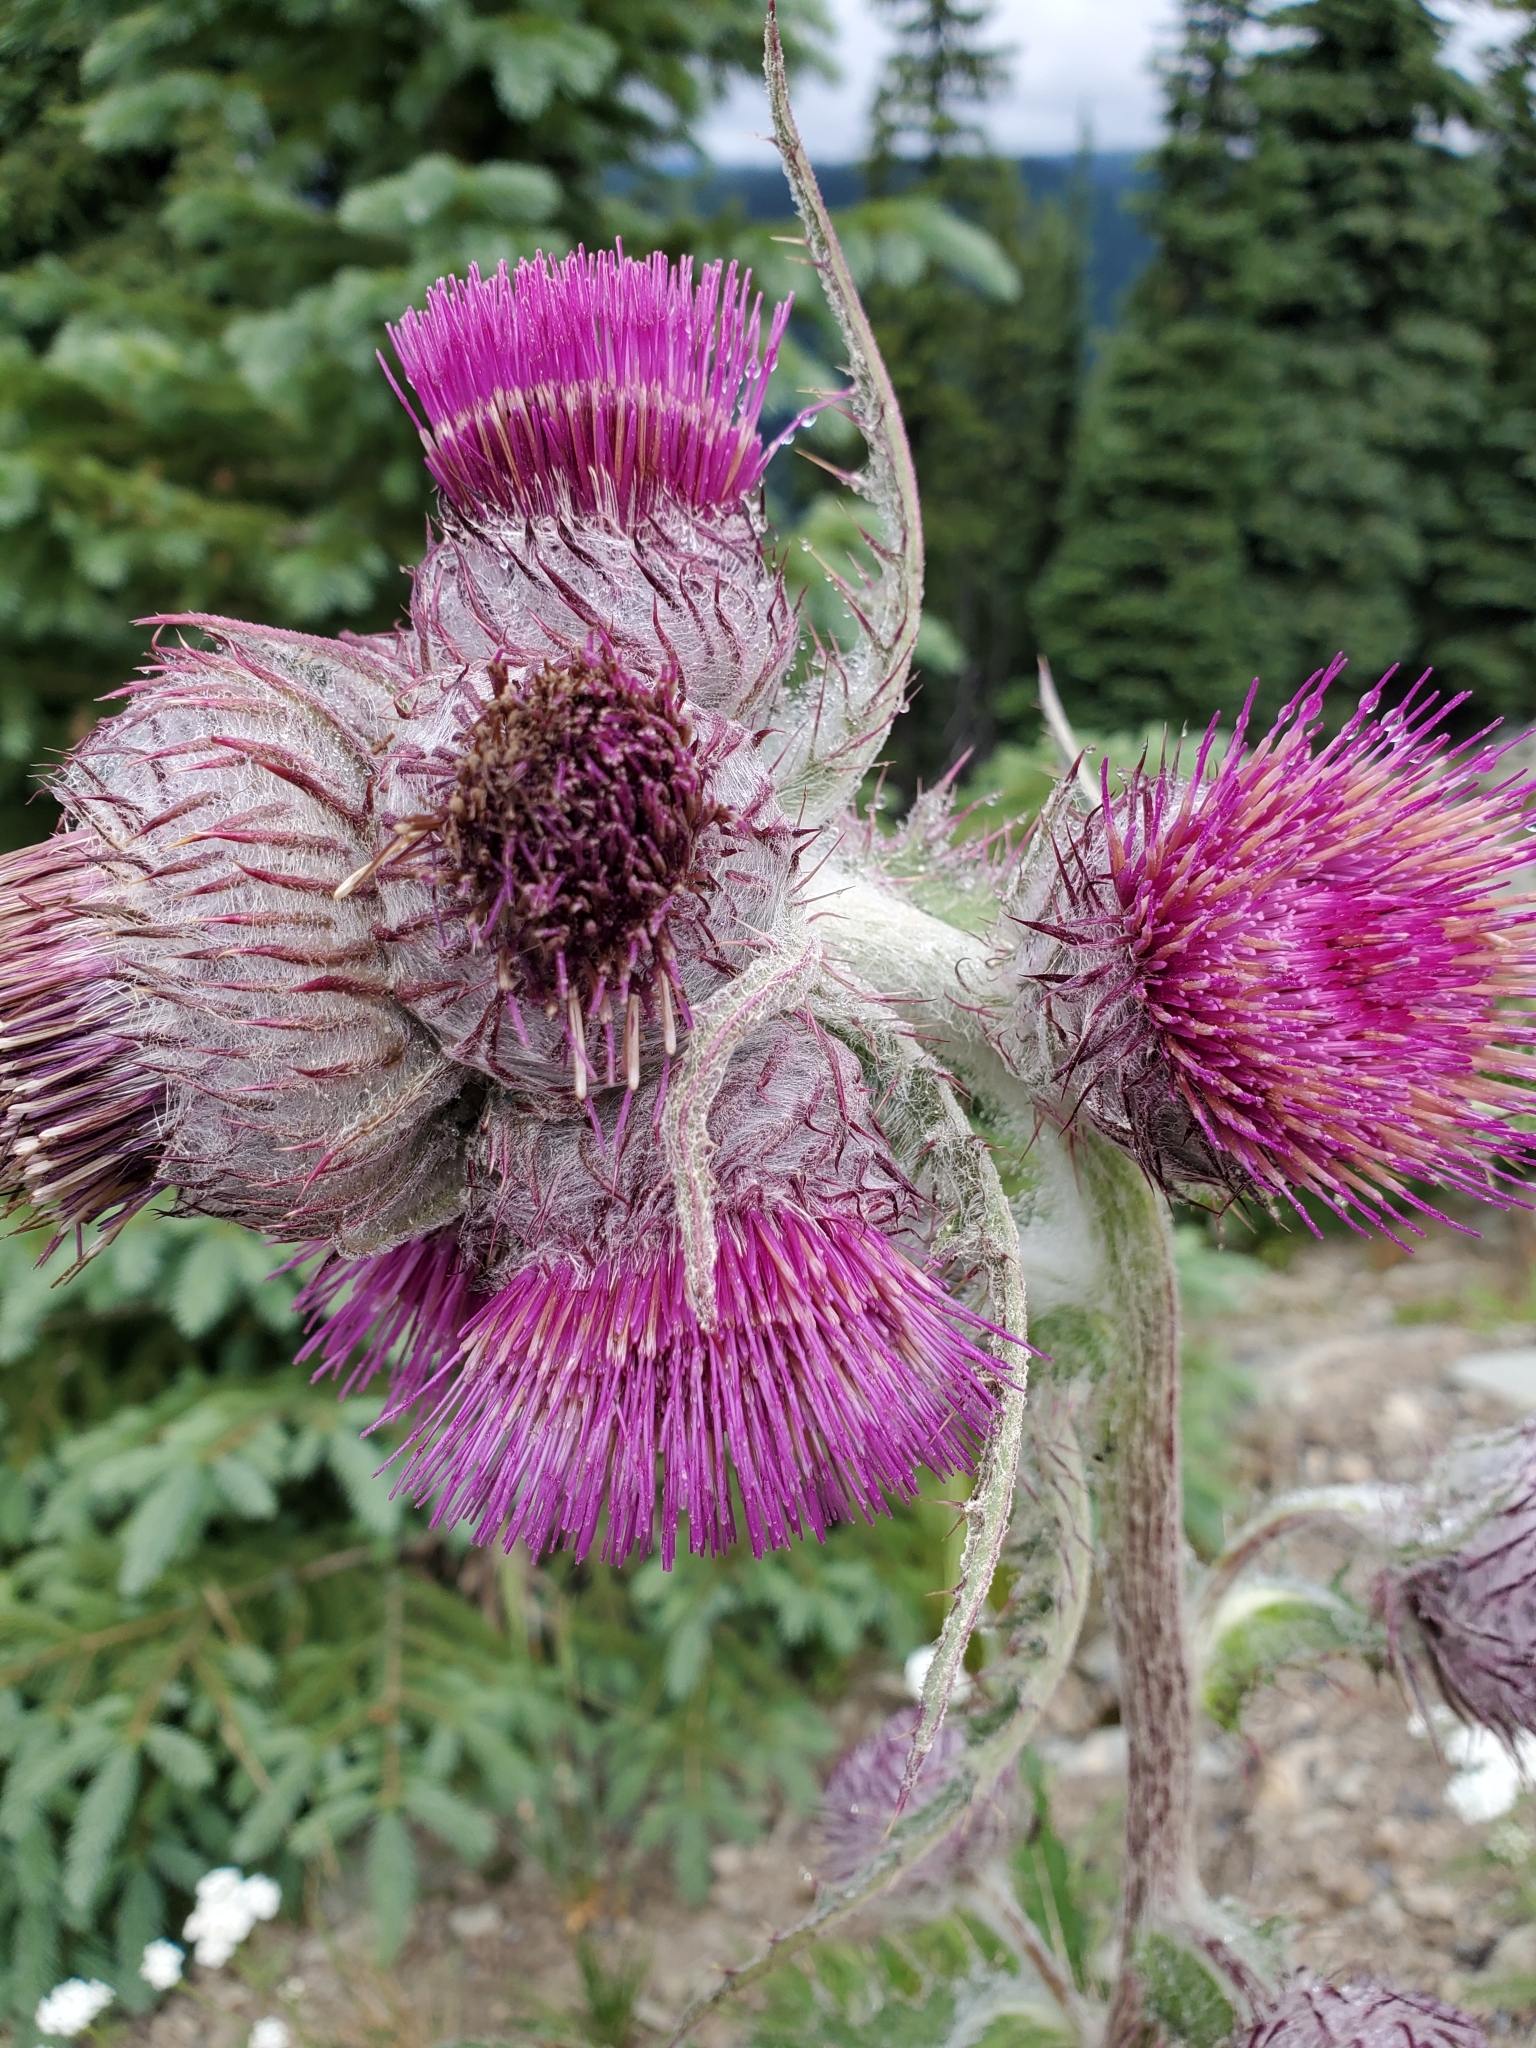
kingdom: Plantae
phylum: Tracheophyta
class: Magnoliopsida
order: Asterales
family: Asteraceae
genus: Cirsium
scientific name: Cirsium edule
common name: Indian thistle
